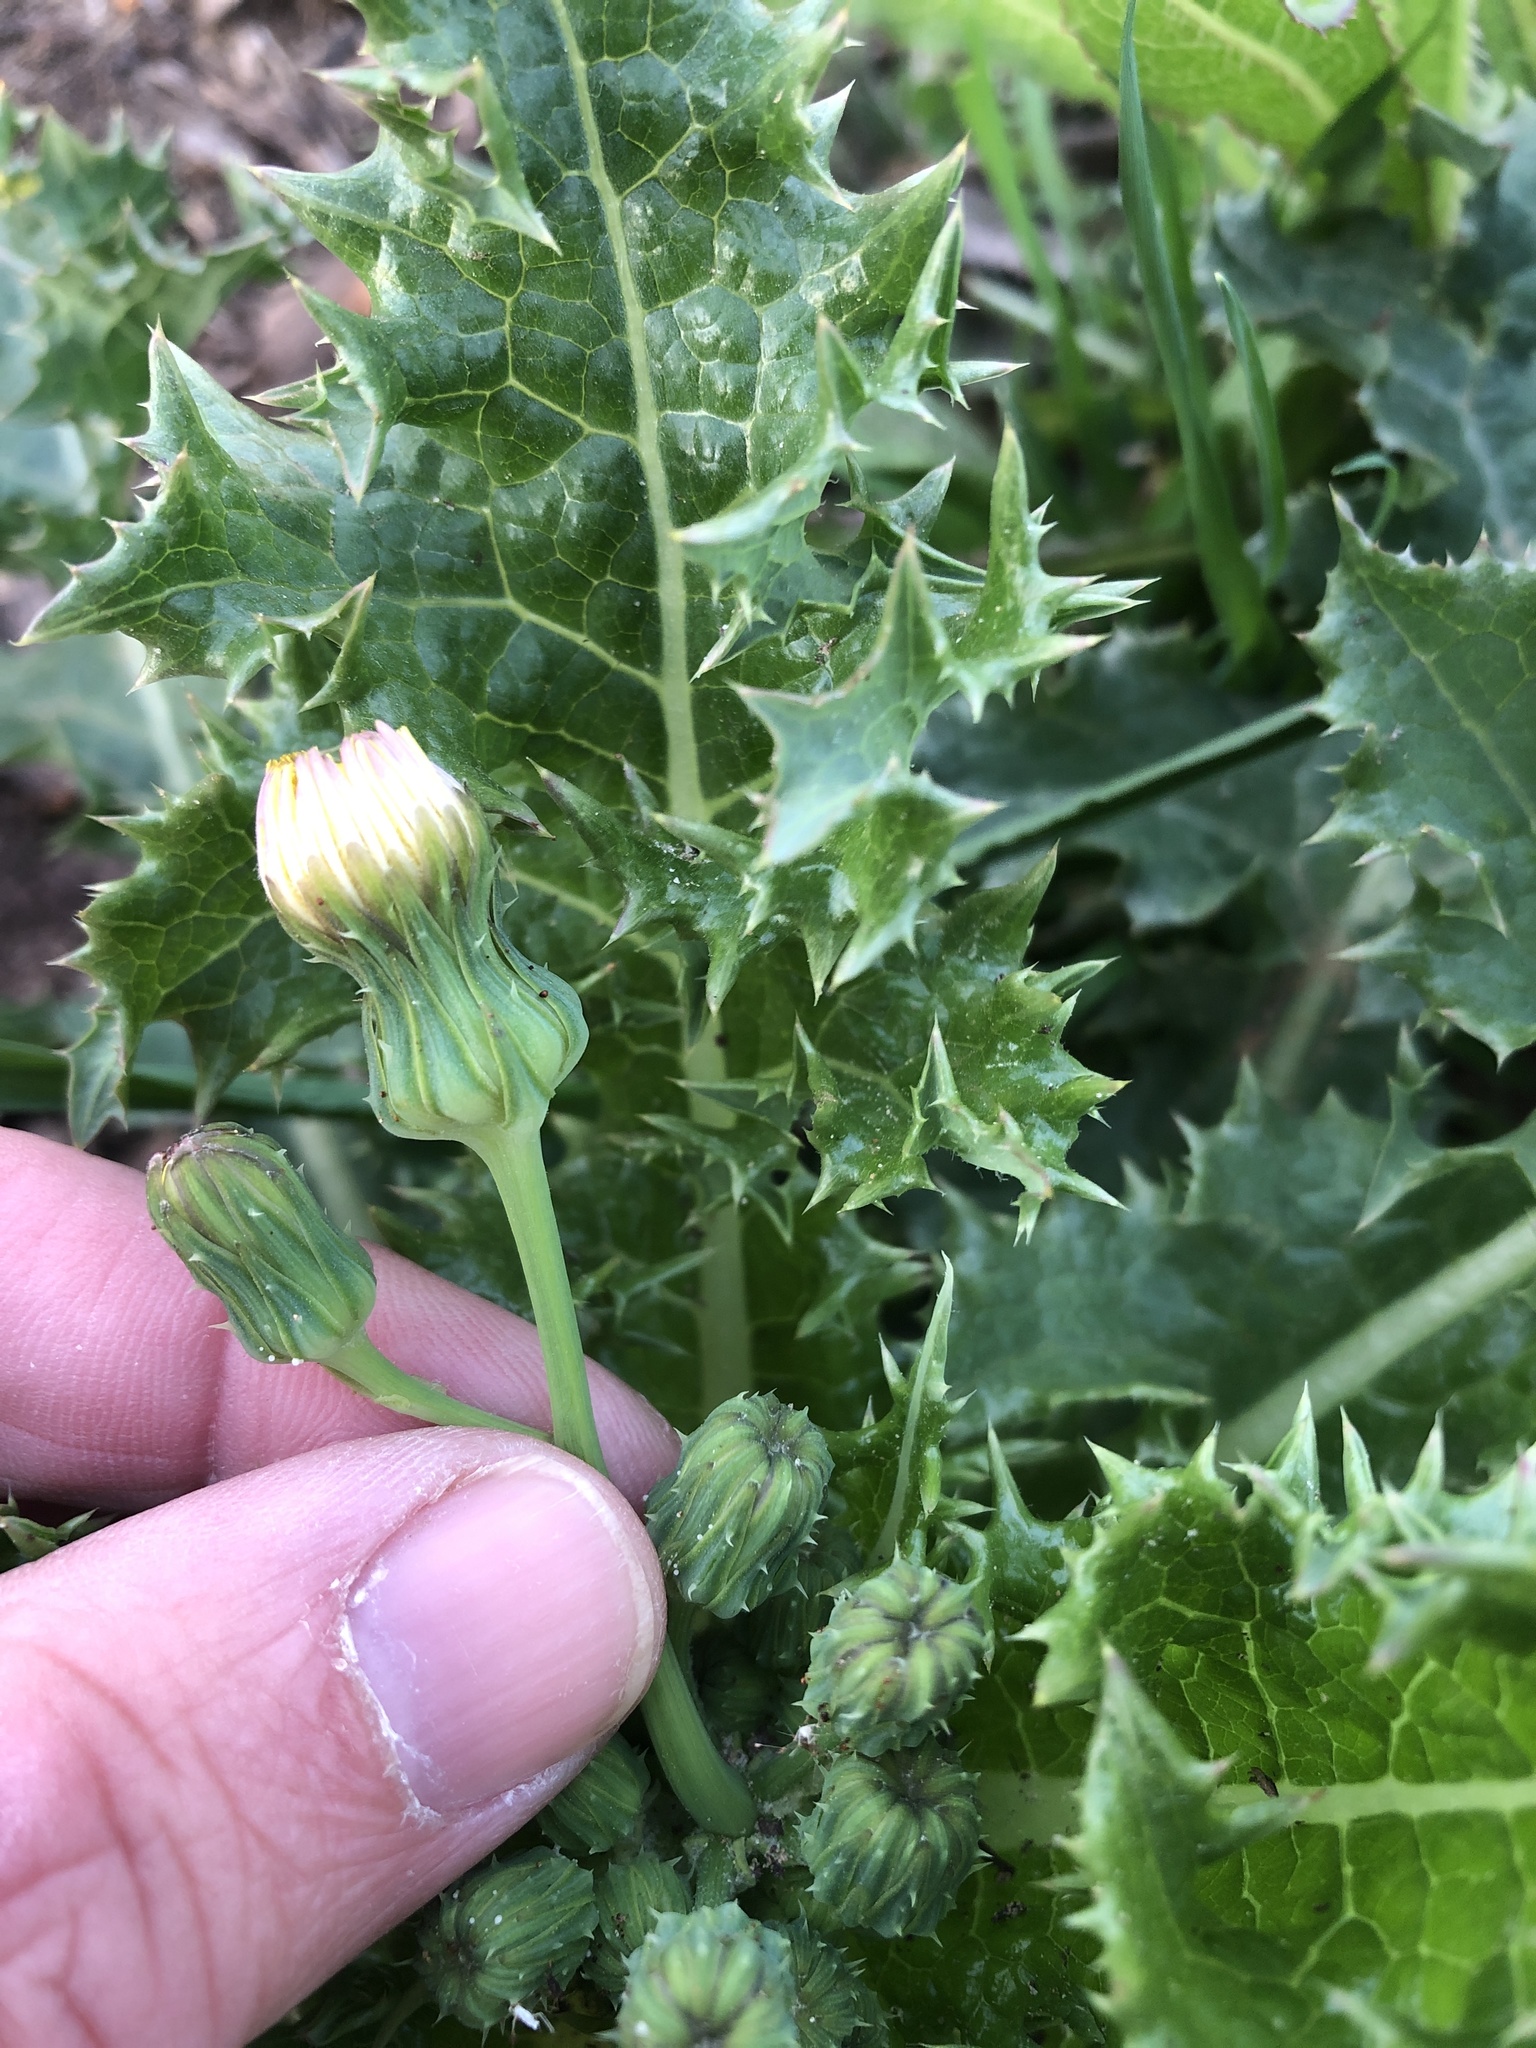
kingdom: Plantae
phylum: Tracheophyta
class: Magnoliopsida
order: Asterales
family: Asteraceae
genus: Sonchus
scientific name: Sonchus asper
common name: Prickly sow-thistle
